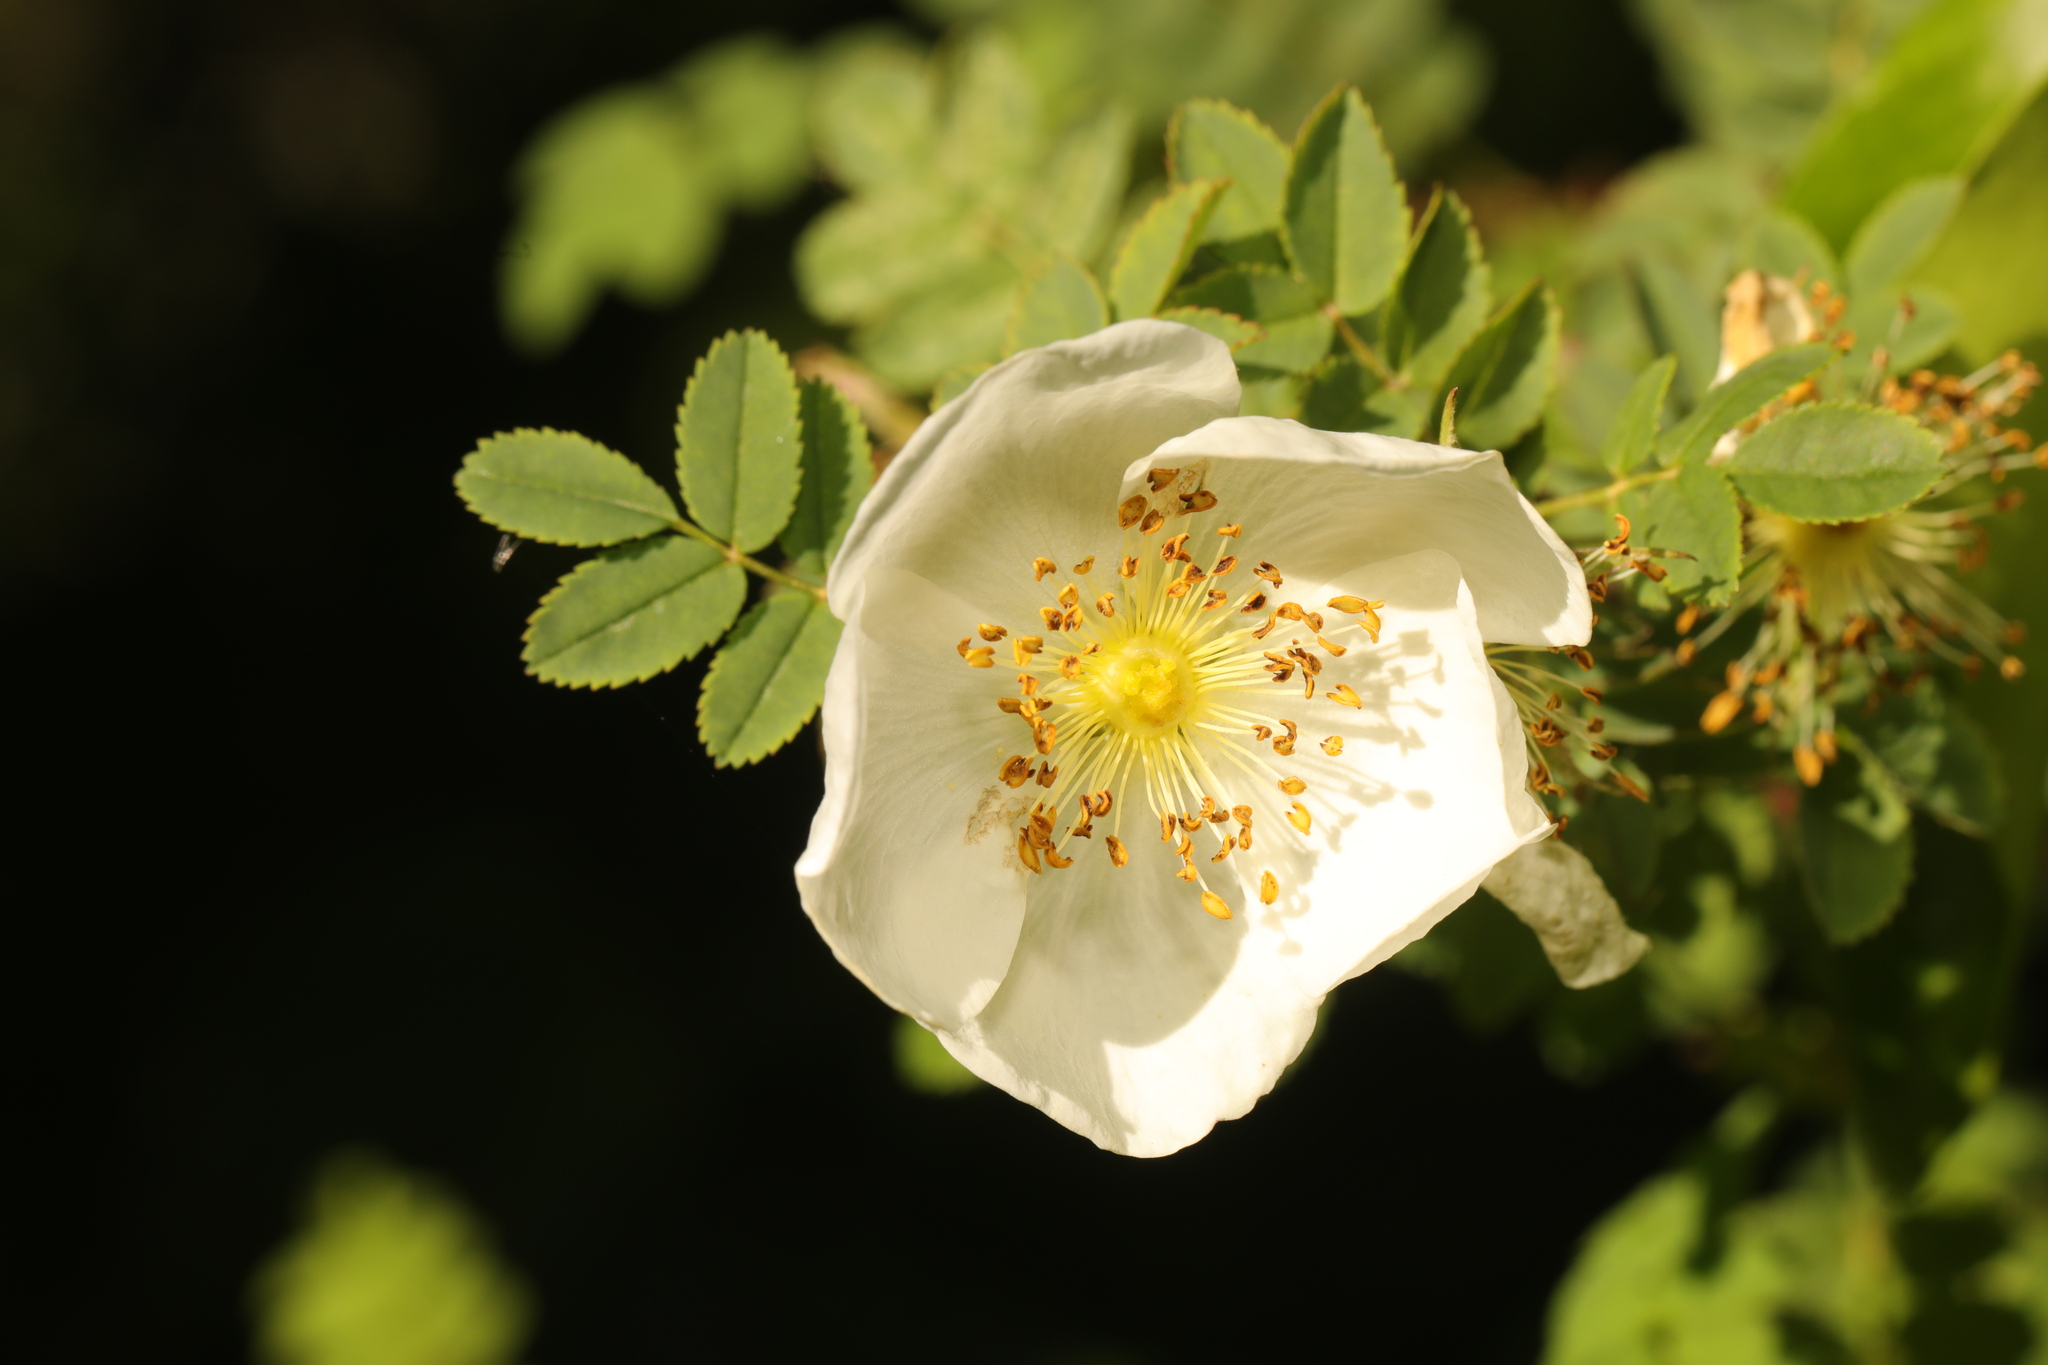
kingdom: Plantae
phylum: Tracheophyta
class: Magnoliopsida
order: Rosales
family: Rosaceae
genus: Rosa
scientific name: Rosa spinosissima
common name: Burnet rose
